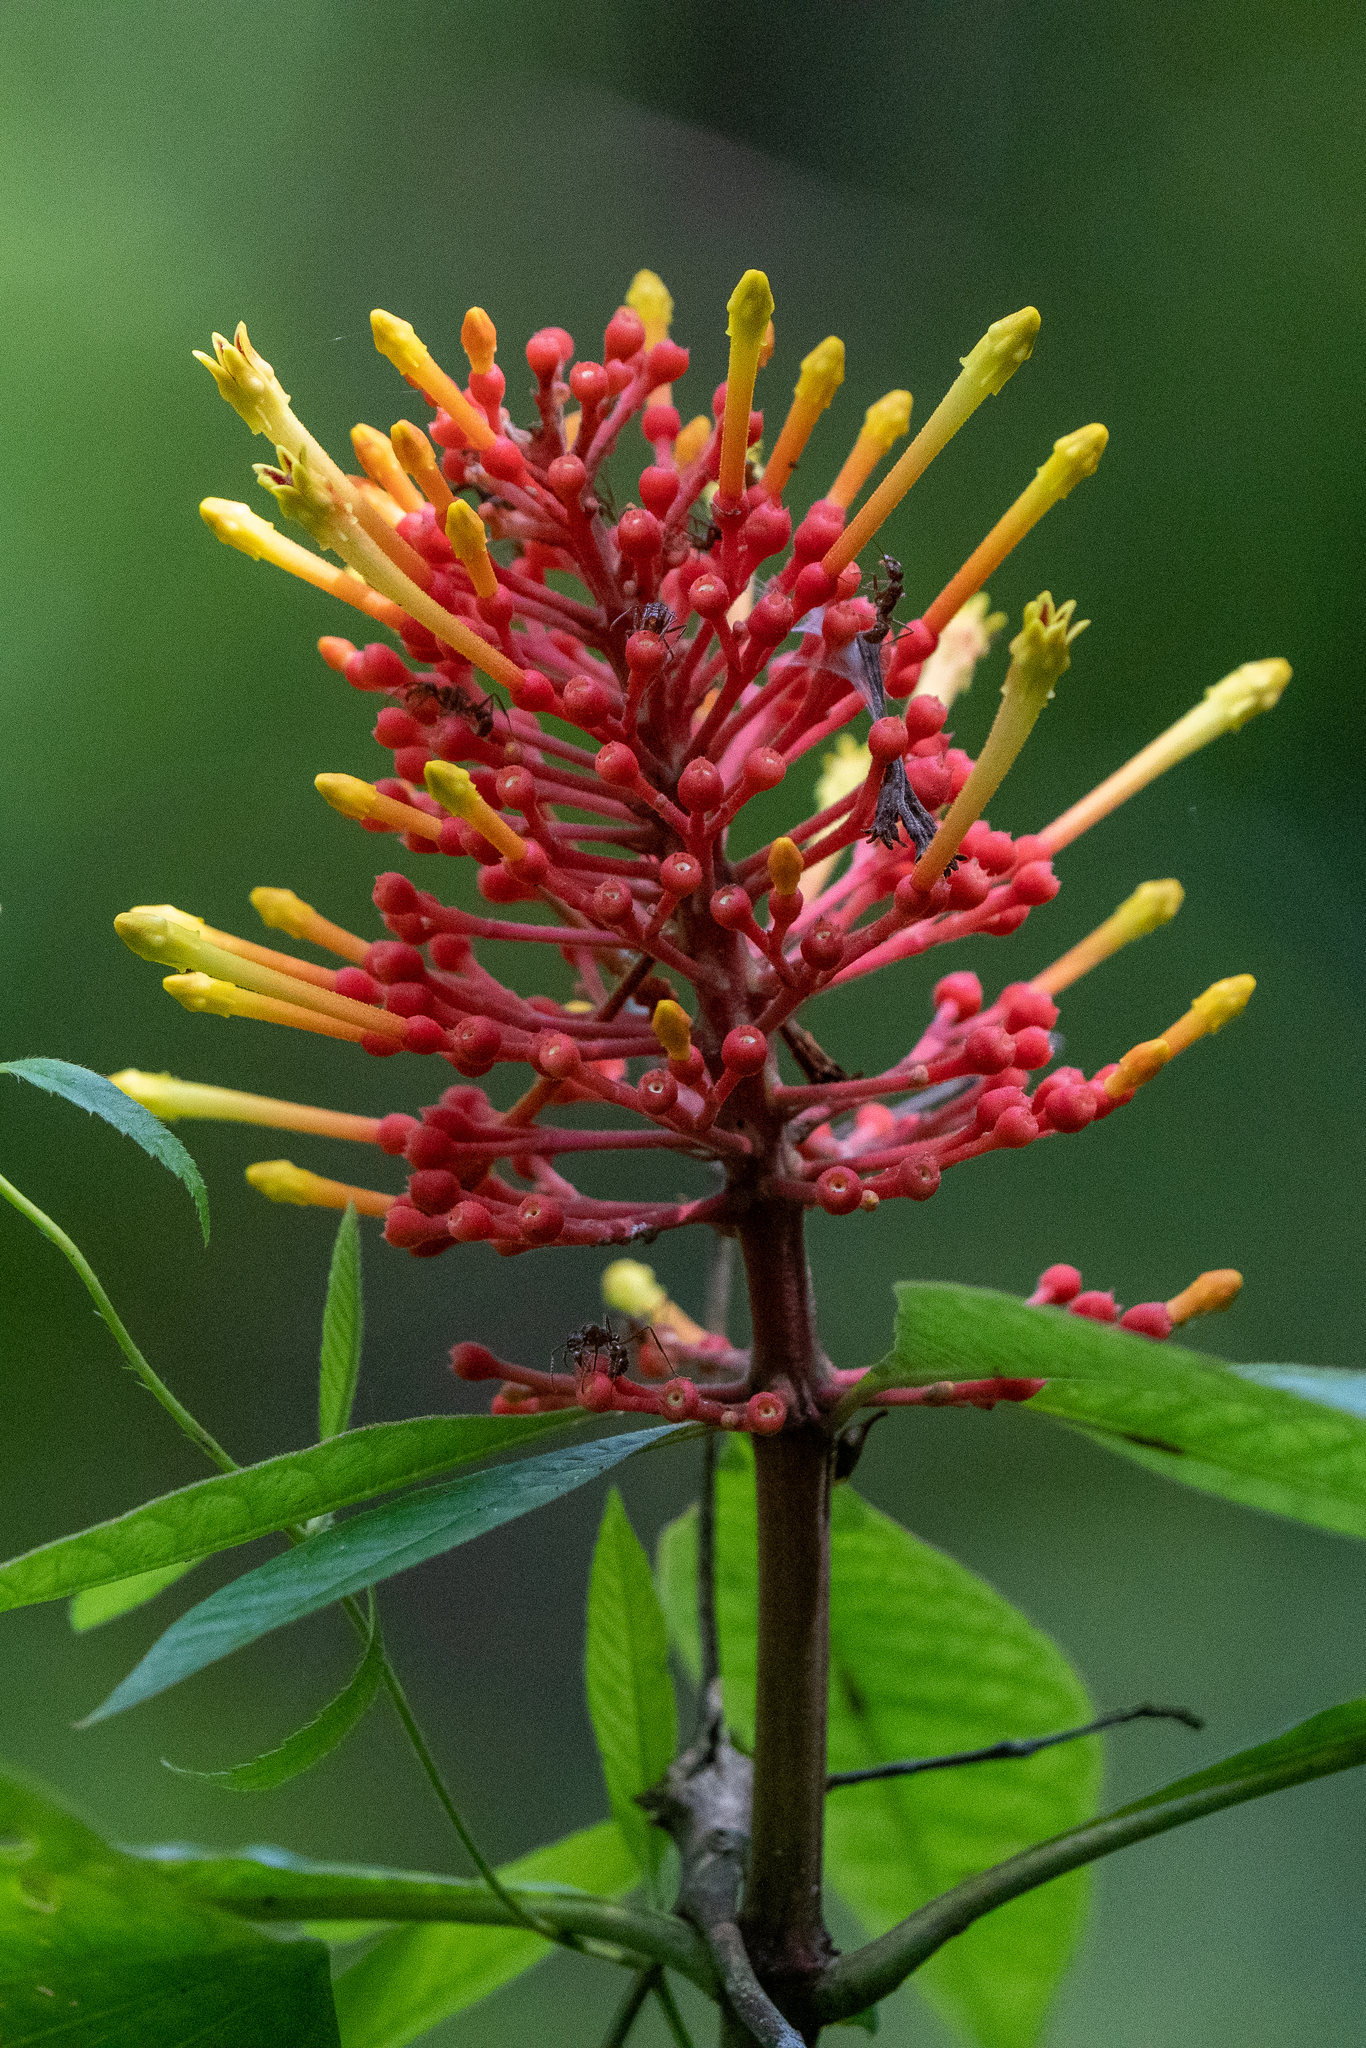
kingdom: Plantae
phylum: Tracheophyta
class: Magnoliopsida
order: Gentianales
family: Rubiaceae
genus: Isertia
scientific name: Isertia haenkeana
